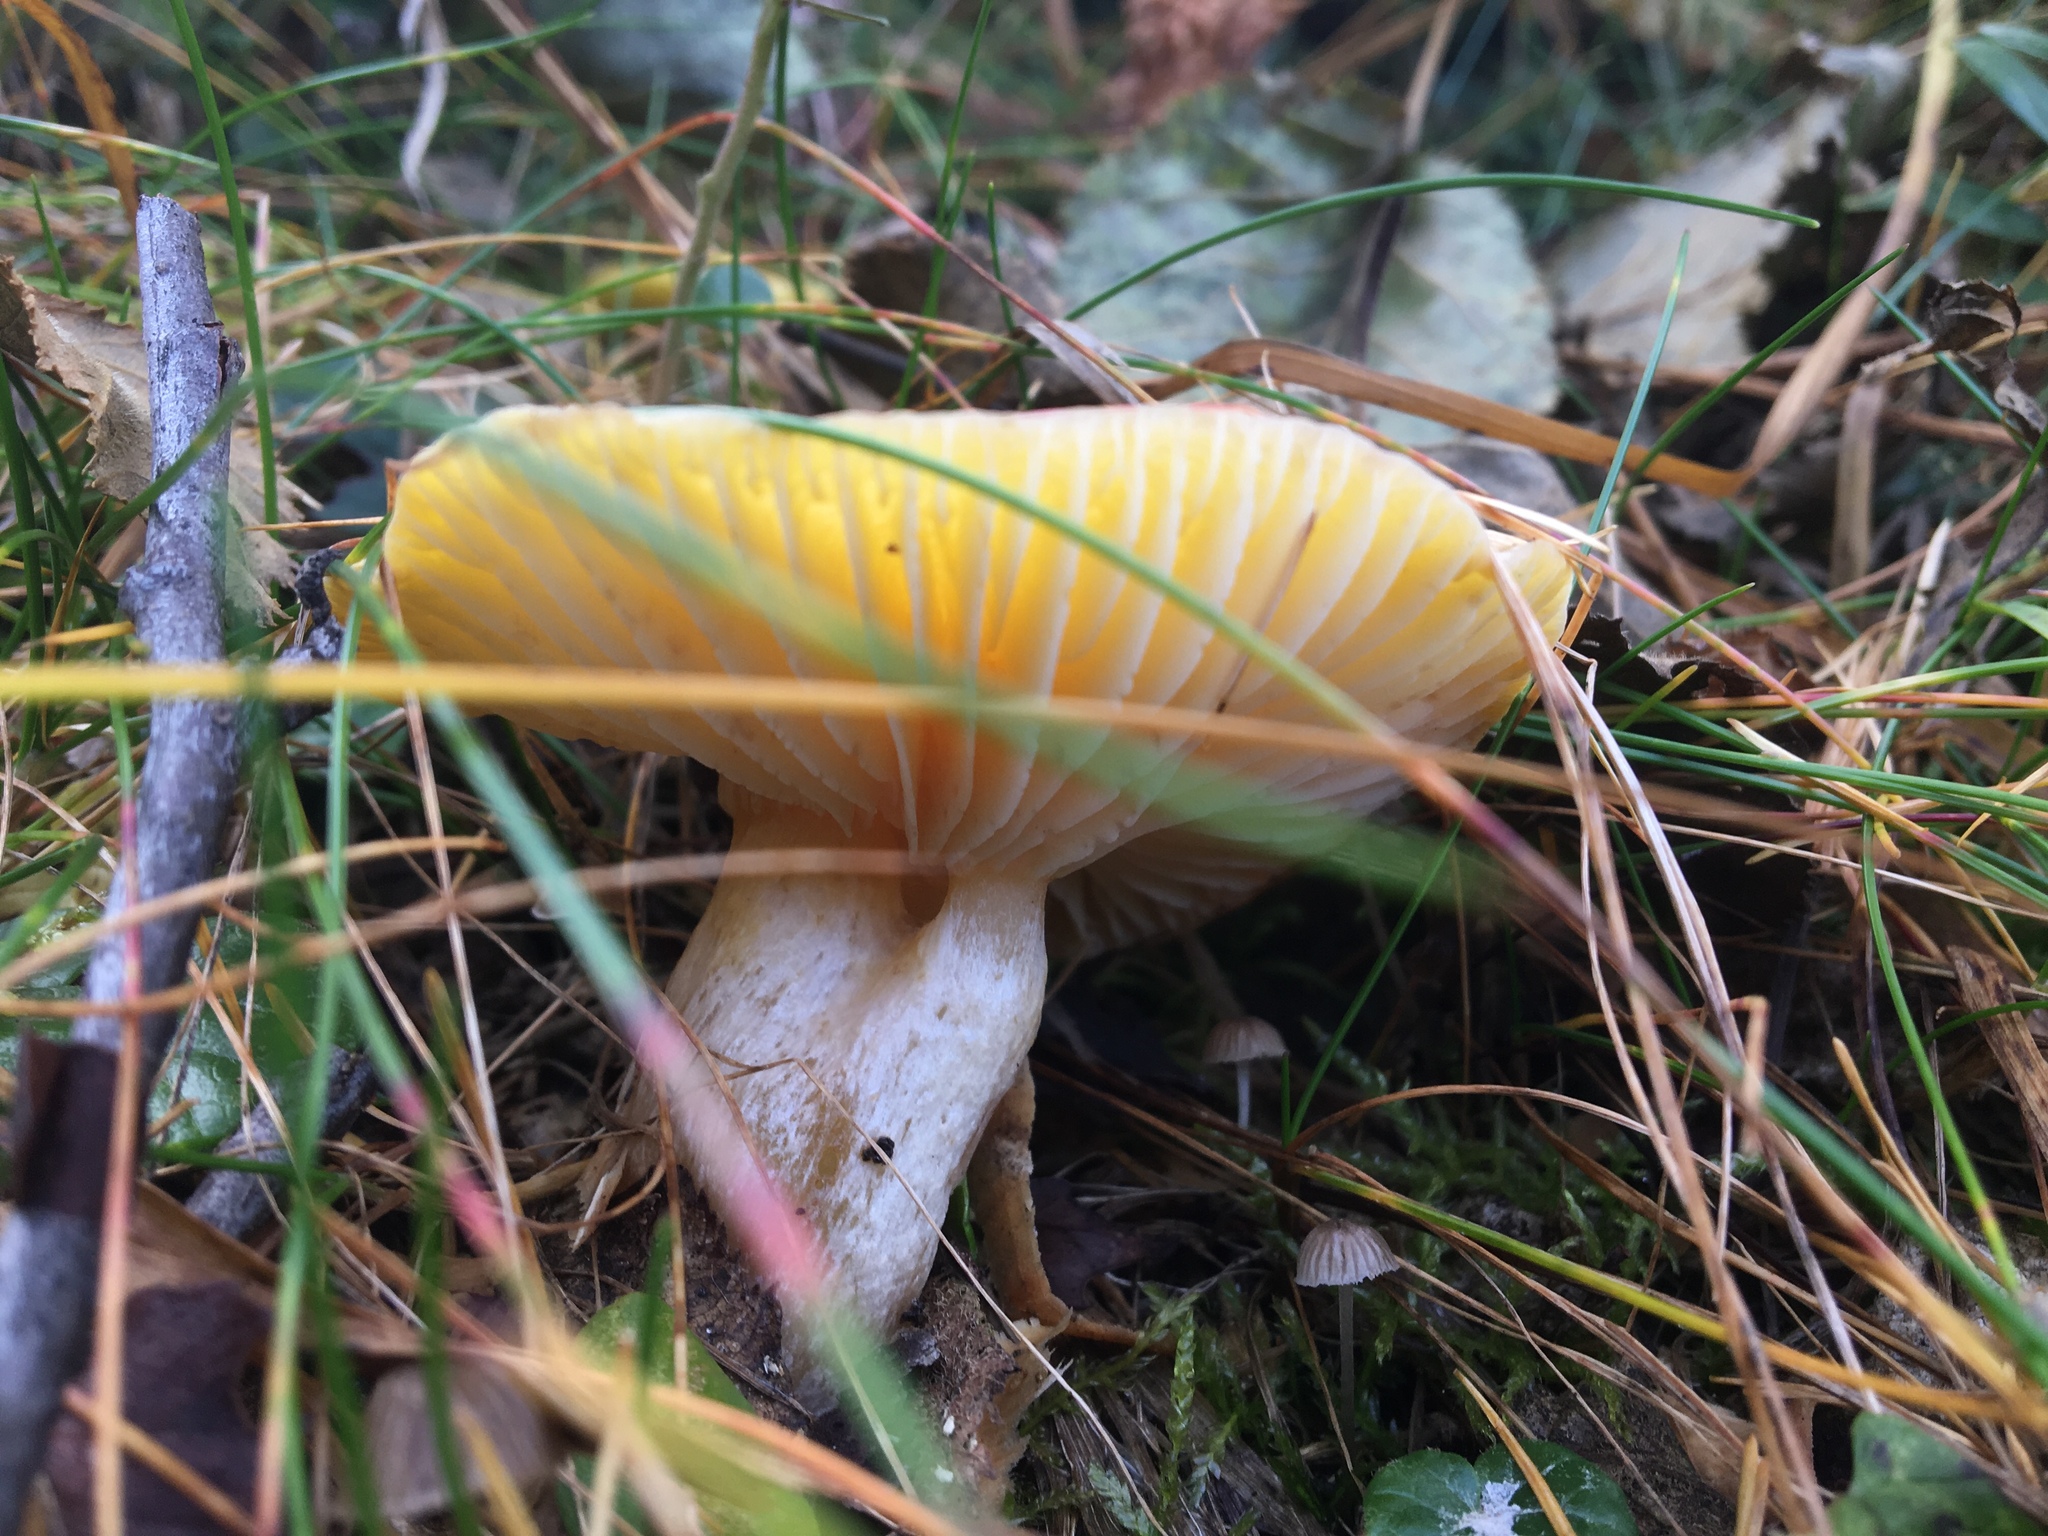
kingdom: Fungi
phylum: Basidiomycota
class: Agaricomycetes
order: Agaricales
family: Hygrophoraceae
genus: Hygrophorus
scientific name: Hygrophorus speciosus
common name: Splendid woodwax
